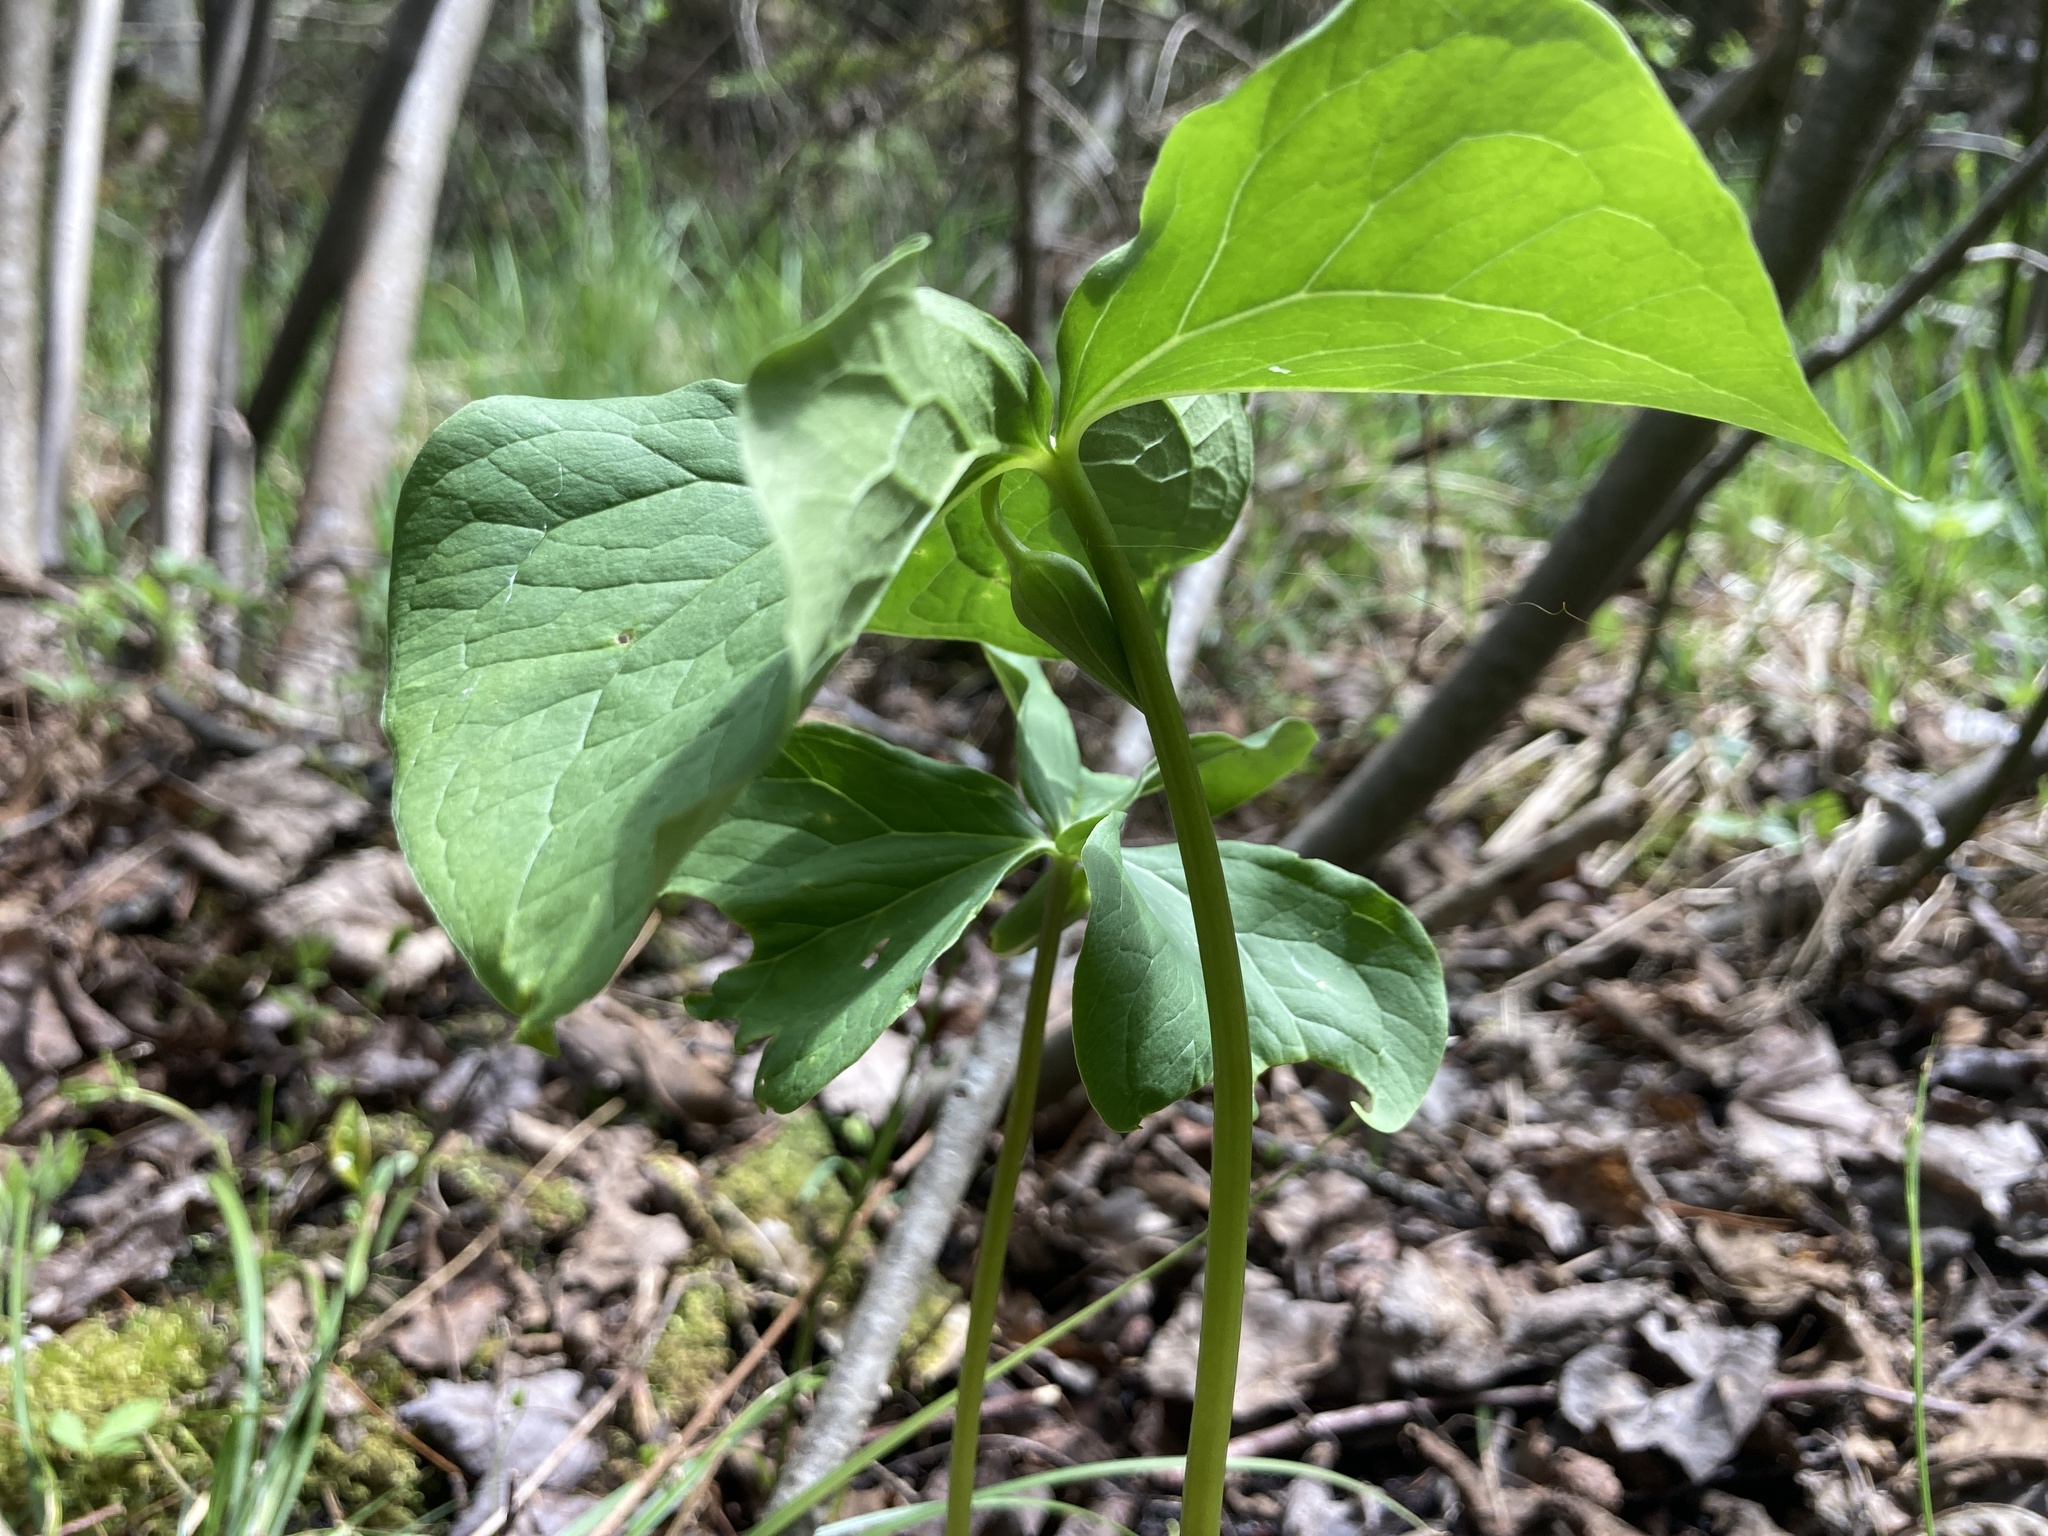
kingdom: Plantae
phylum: Tracheophyta
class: Liliopsida
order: Liliales
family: Melanthiaceae
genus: Trillium
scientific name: Trillium cernuum
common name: Nodding trillium
